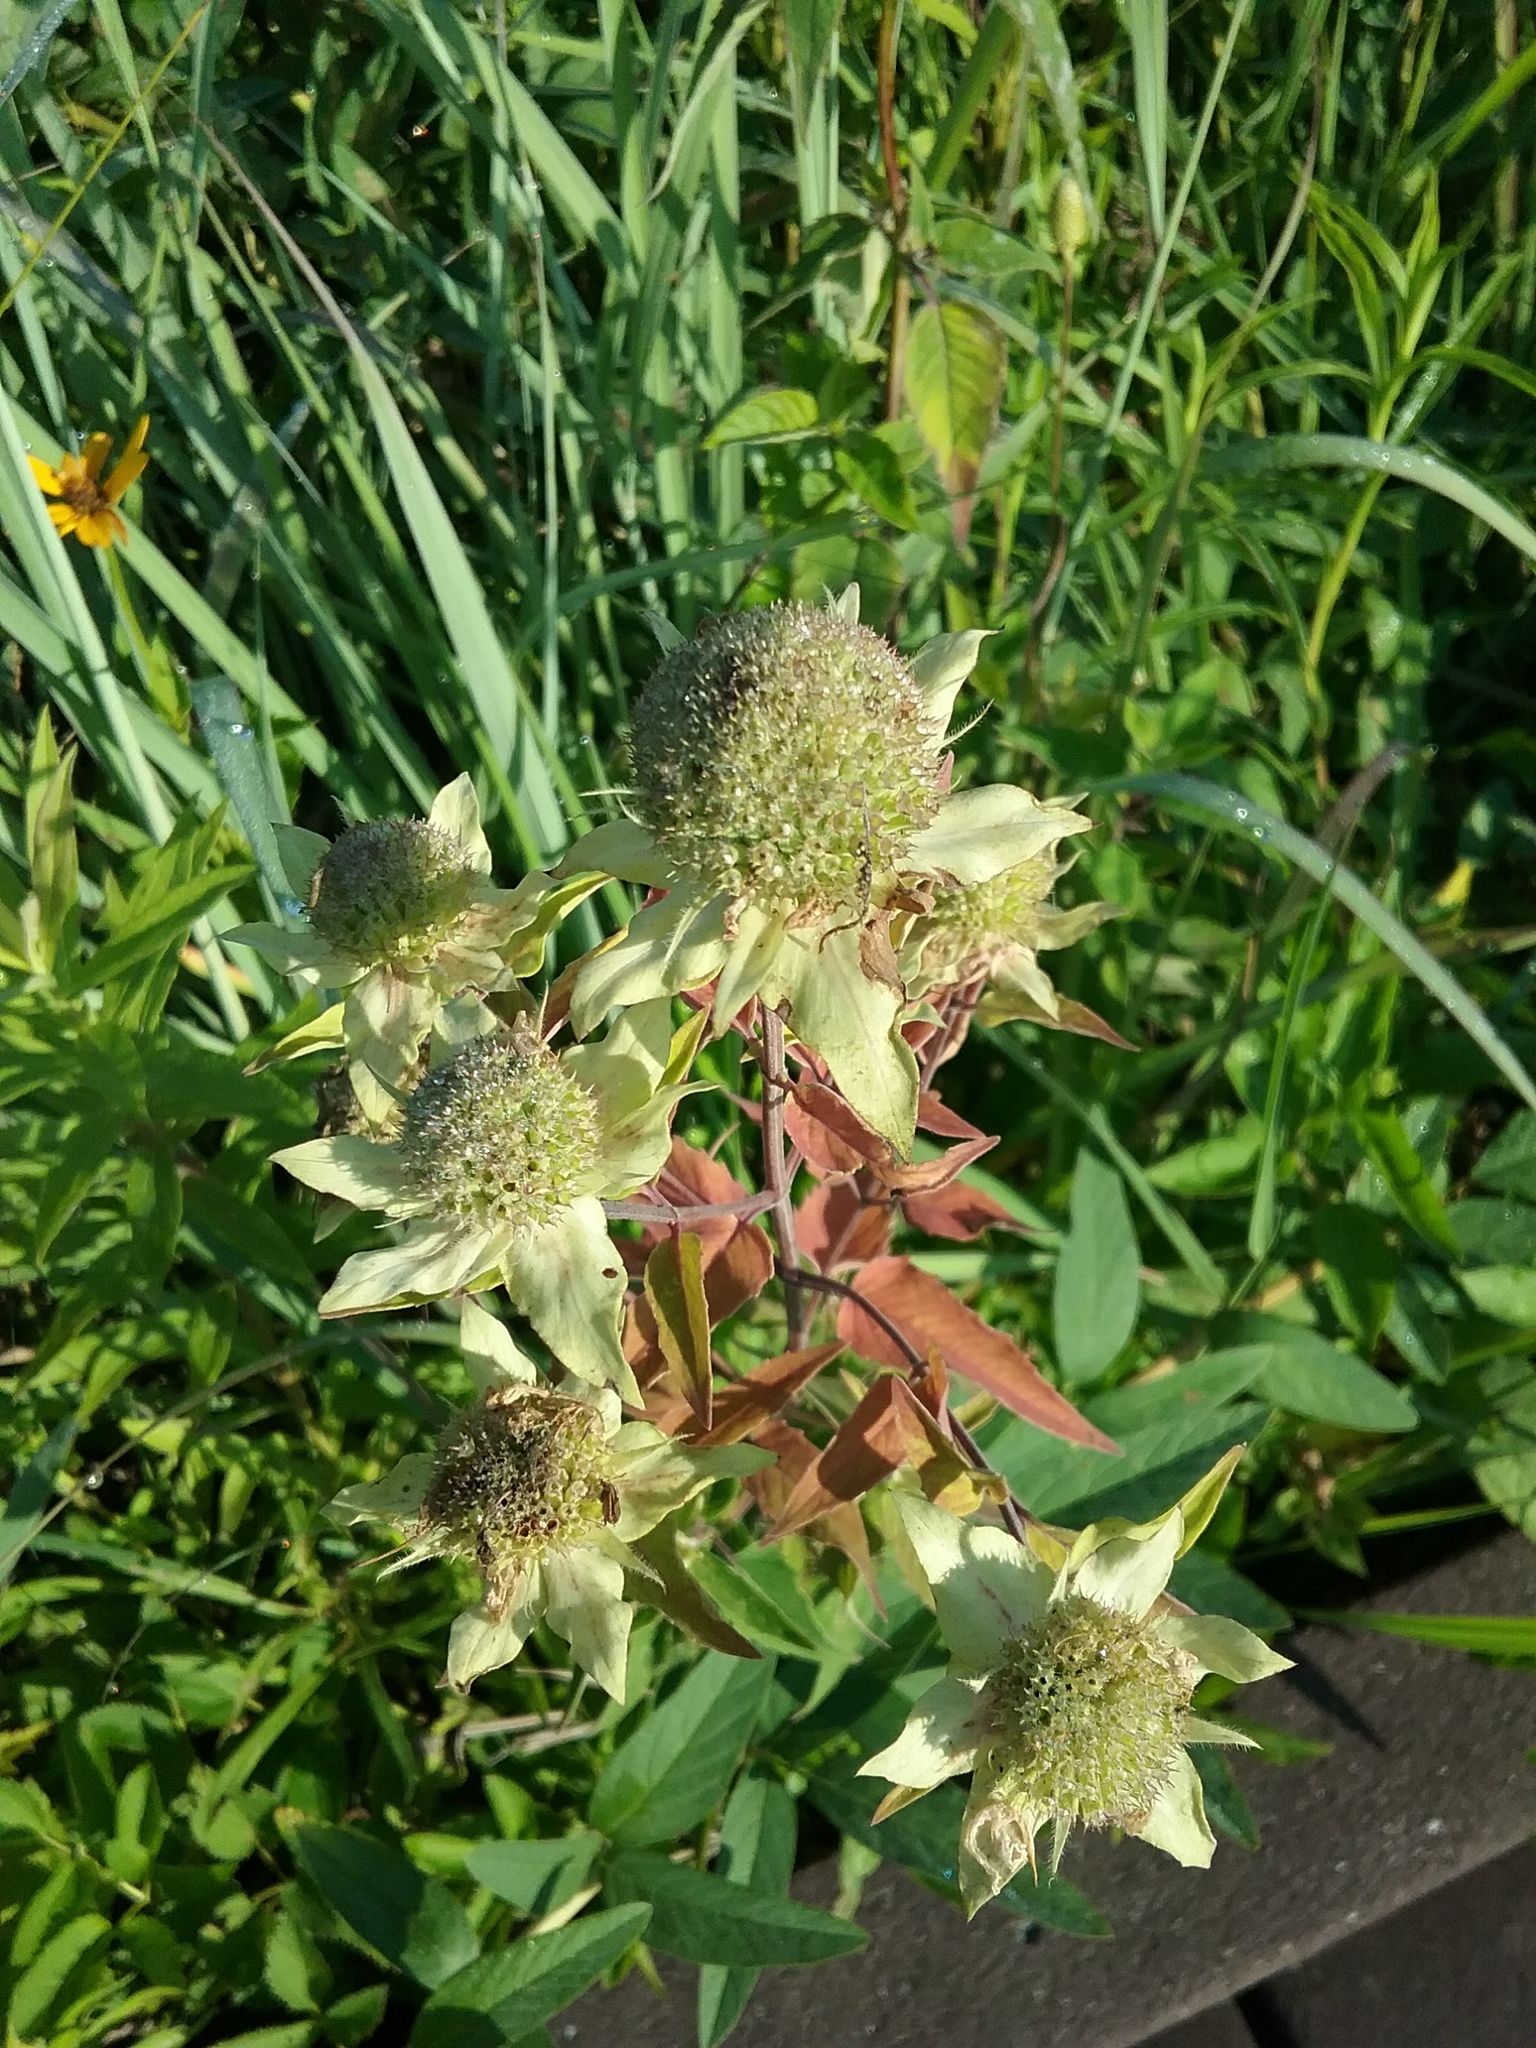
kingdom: Plantae
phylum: Tracheophyta
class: Magnoliopsida
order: Lamiales
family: Lamiaceae
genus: Monarda
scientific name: Monarda fistulosa
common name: Purple beebalm
